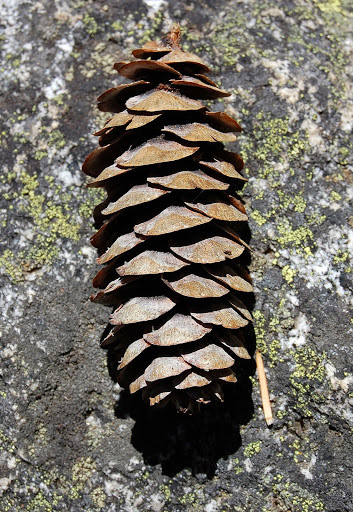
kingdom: Plantae
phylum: Tracheophyta
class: Pinopsida
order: Pinales
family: Pinaceae
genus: Picea
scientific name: Picea breweriana
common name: Brewer's spruce
